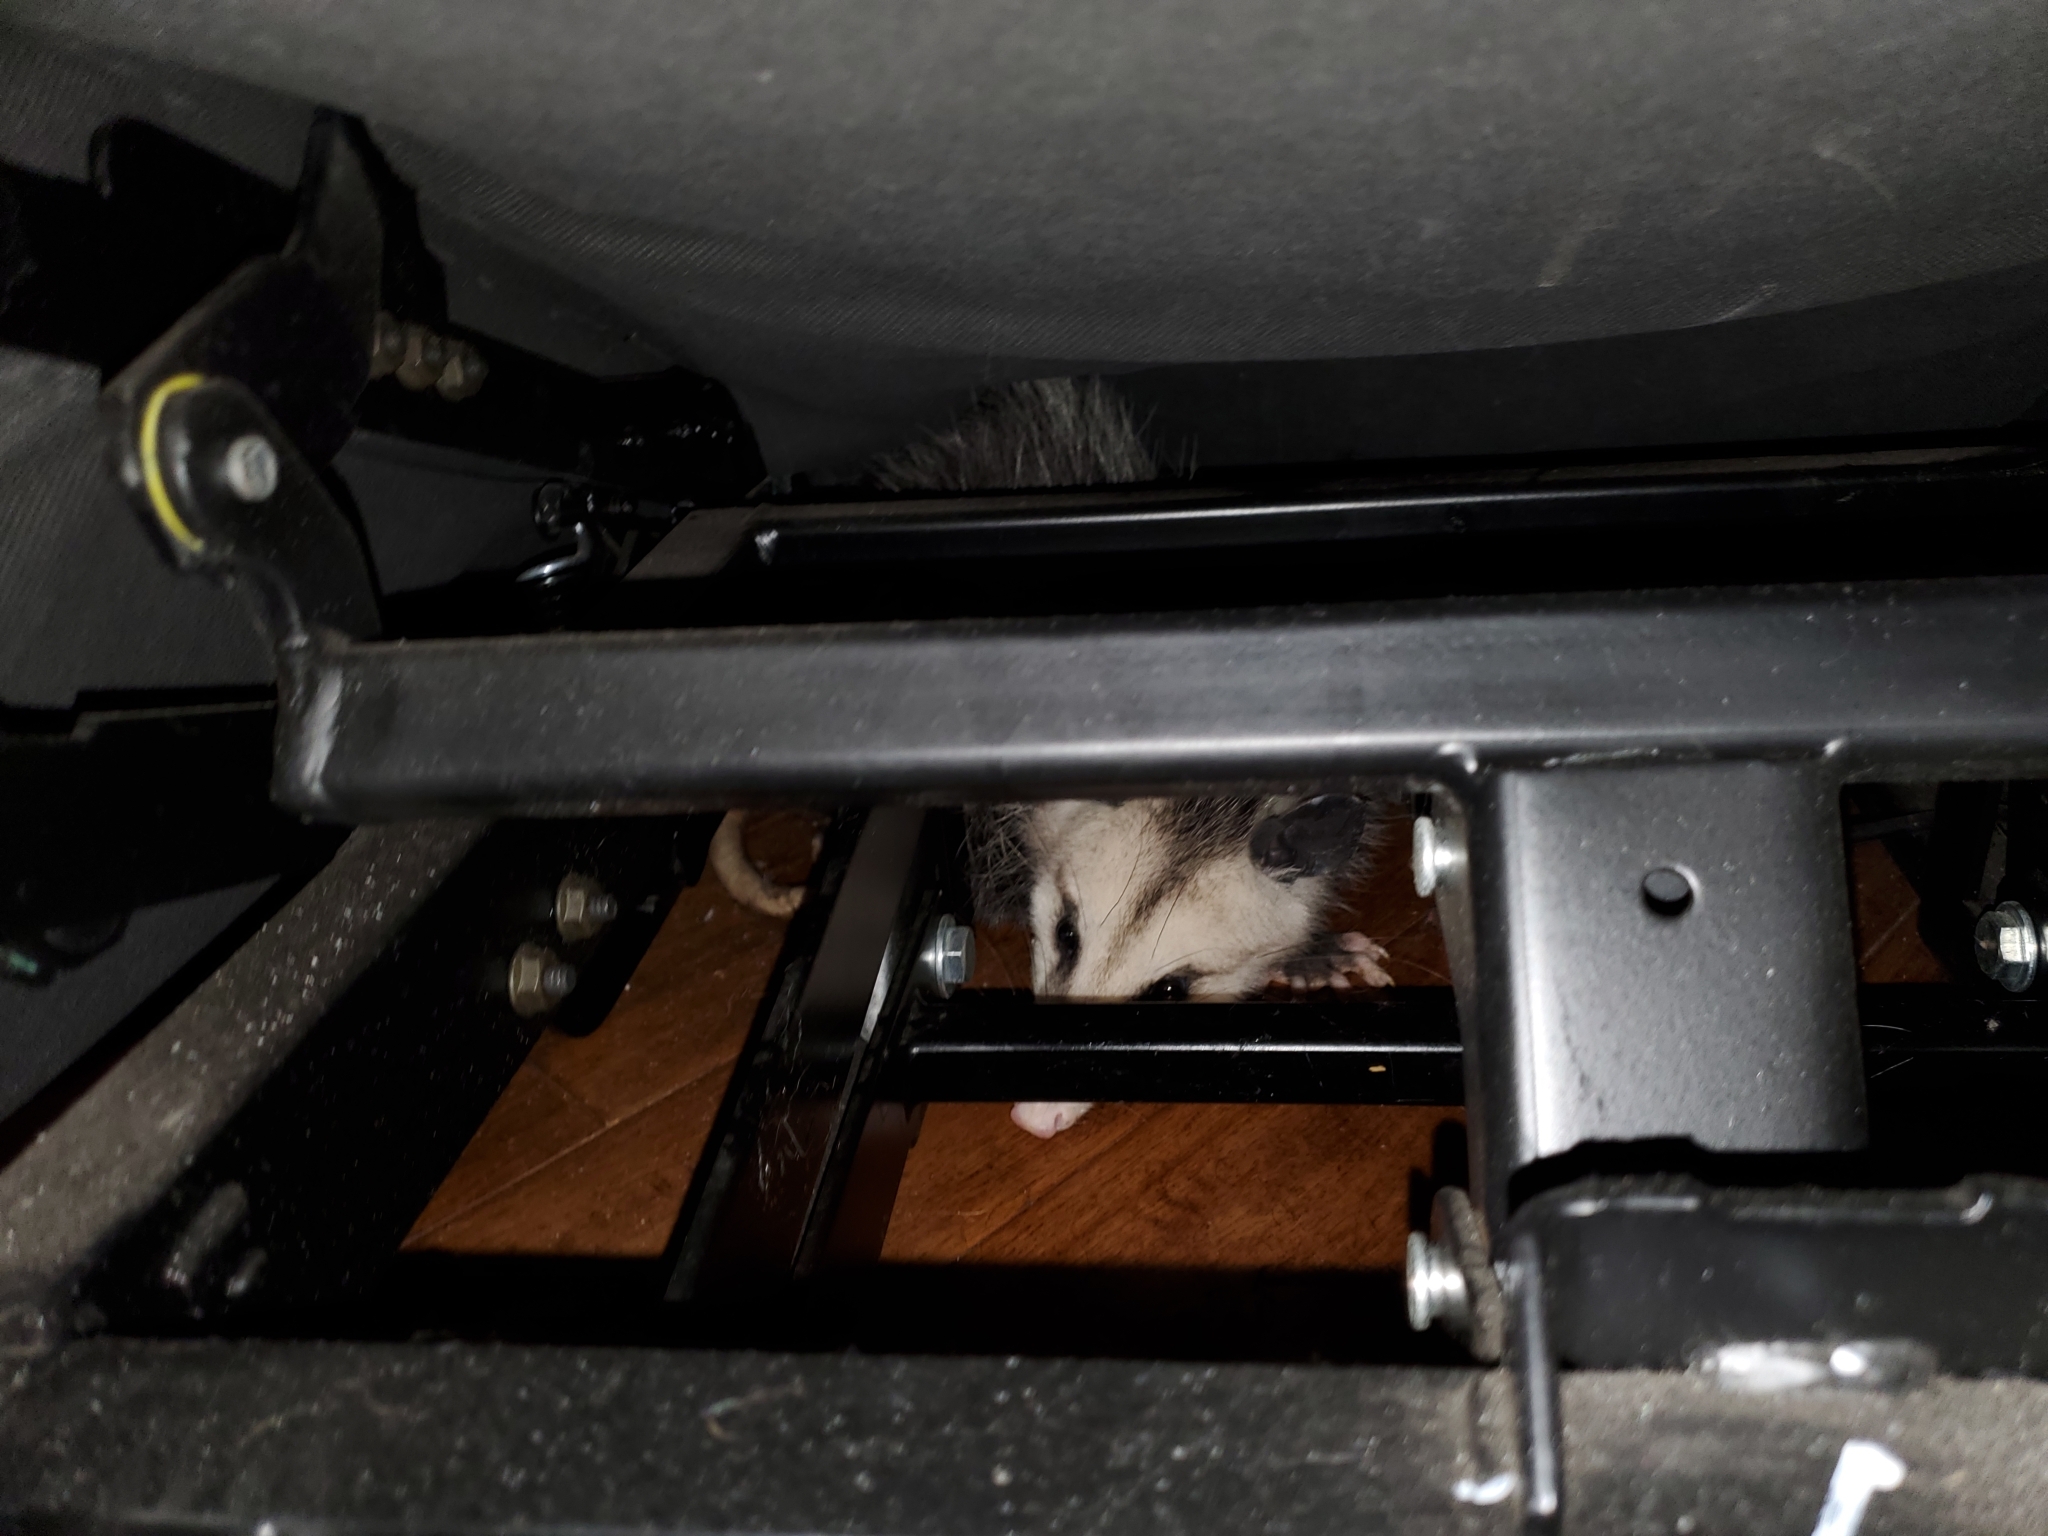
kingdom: Animalia
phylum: Chordata
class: Mammalia
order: Didelphimorphia
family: Didelphidae
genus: Didelphis
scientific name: Didelphis virginiana
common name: Virginia opossum
